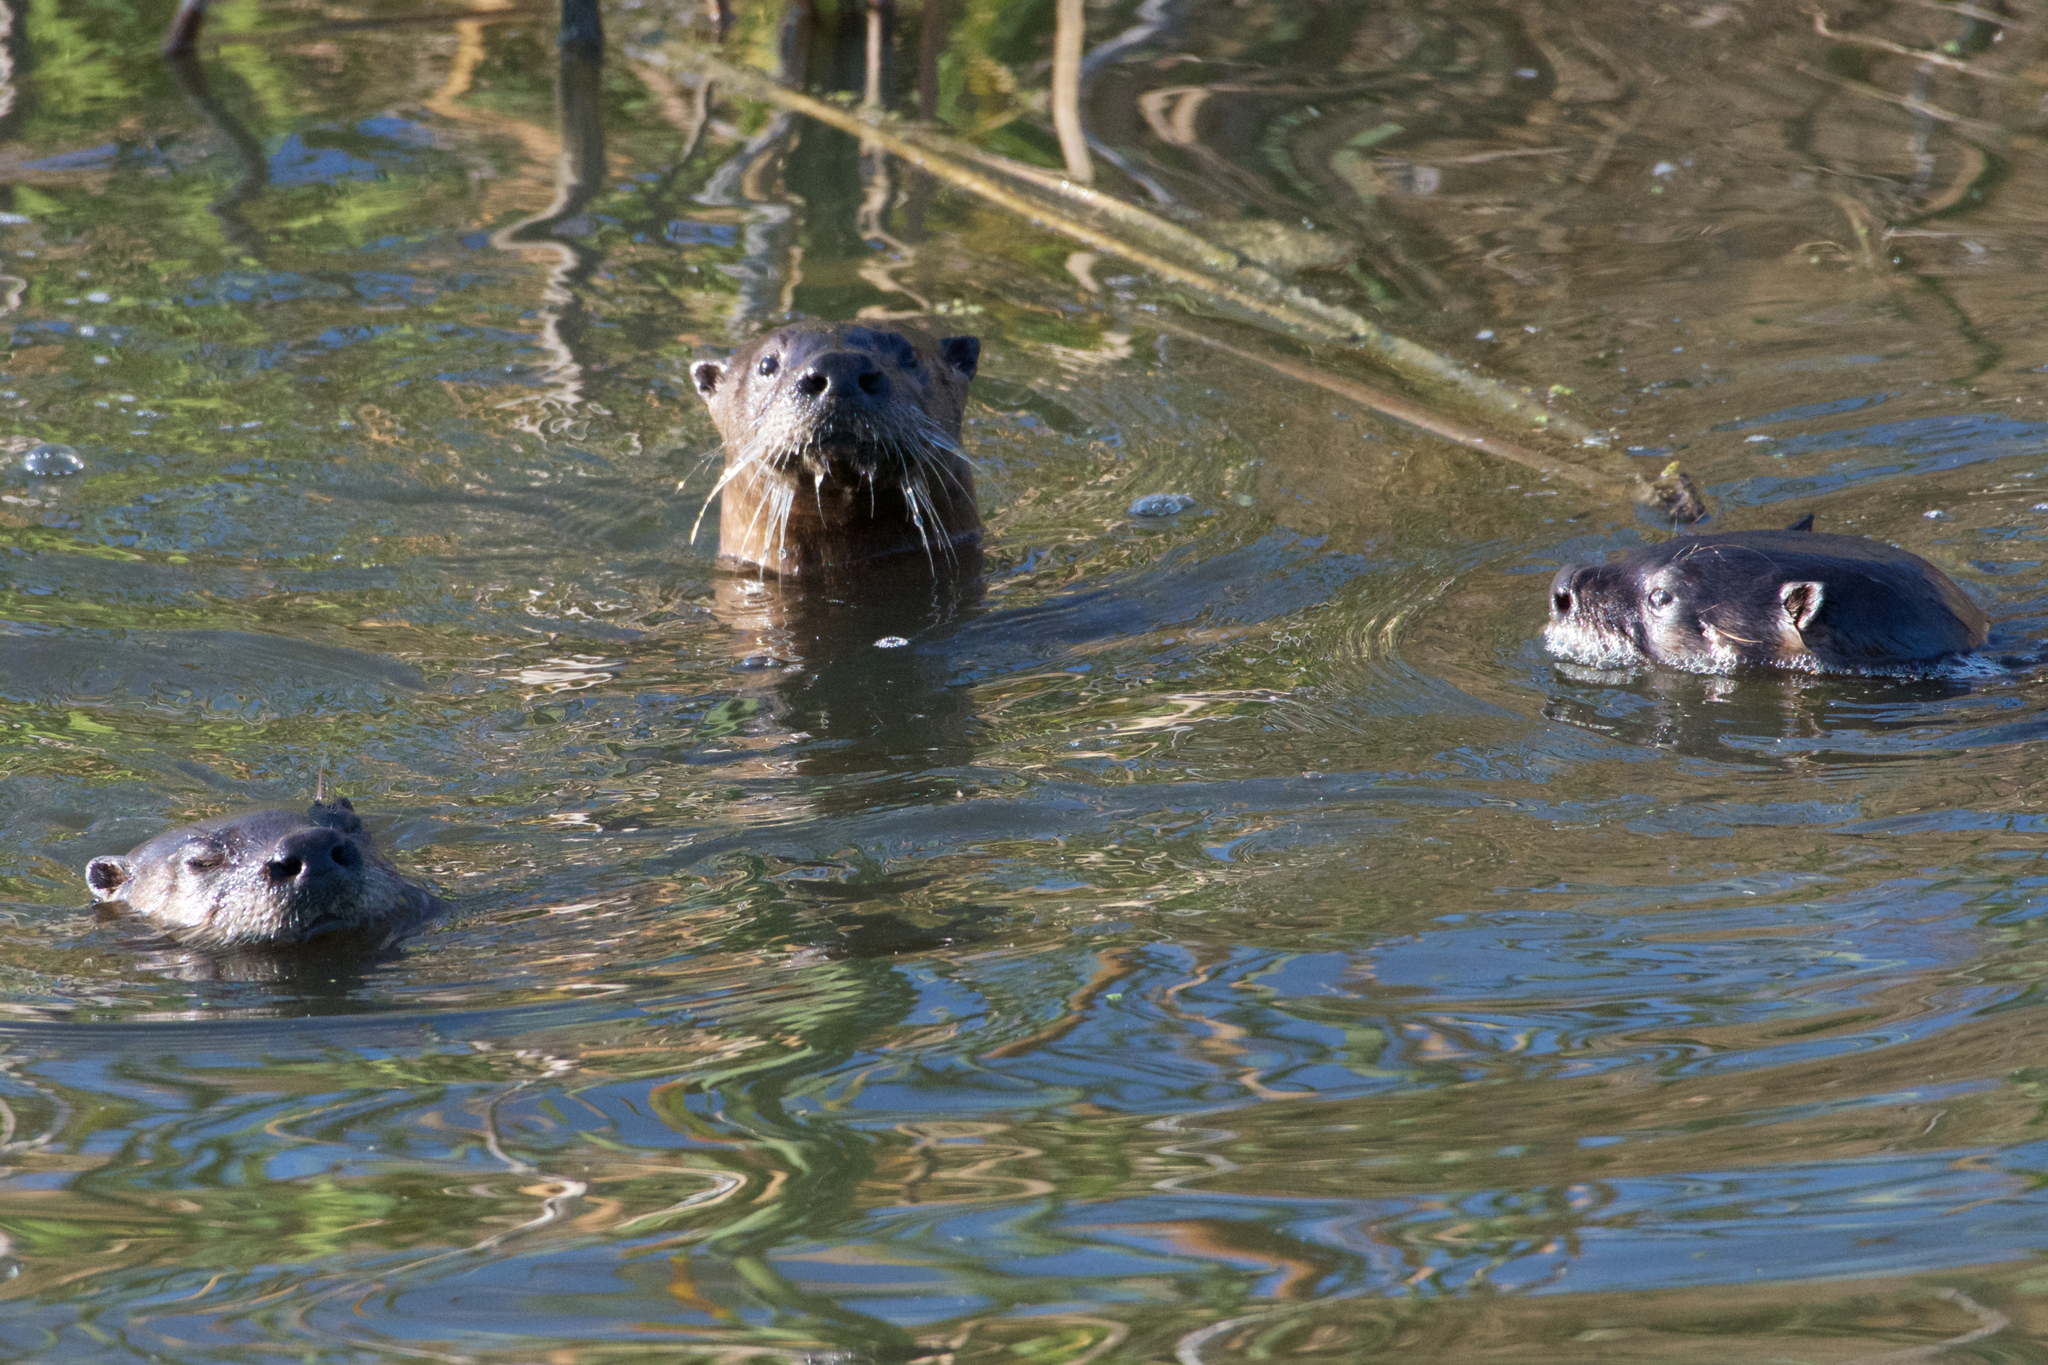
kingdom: Animalia
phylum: Chordata
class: Mammalia
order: Carnivora
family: Mustelidae
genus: Lontra
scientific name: Lontra canadensis
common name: North american river otter
